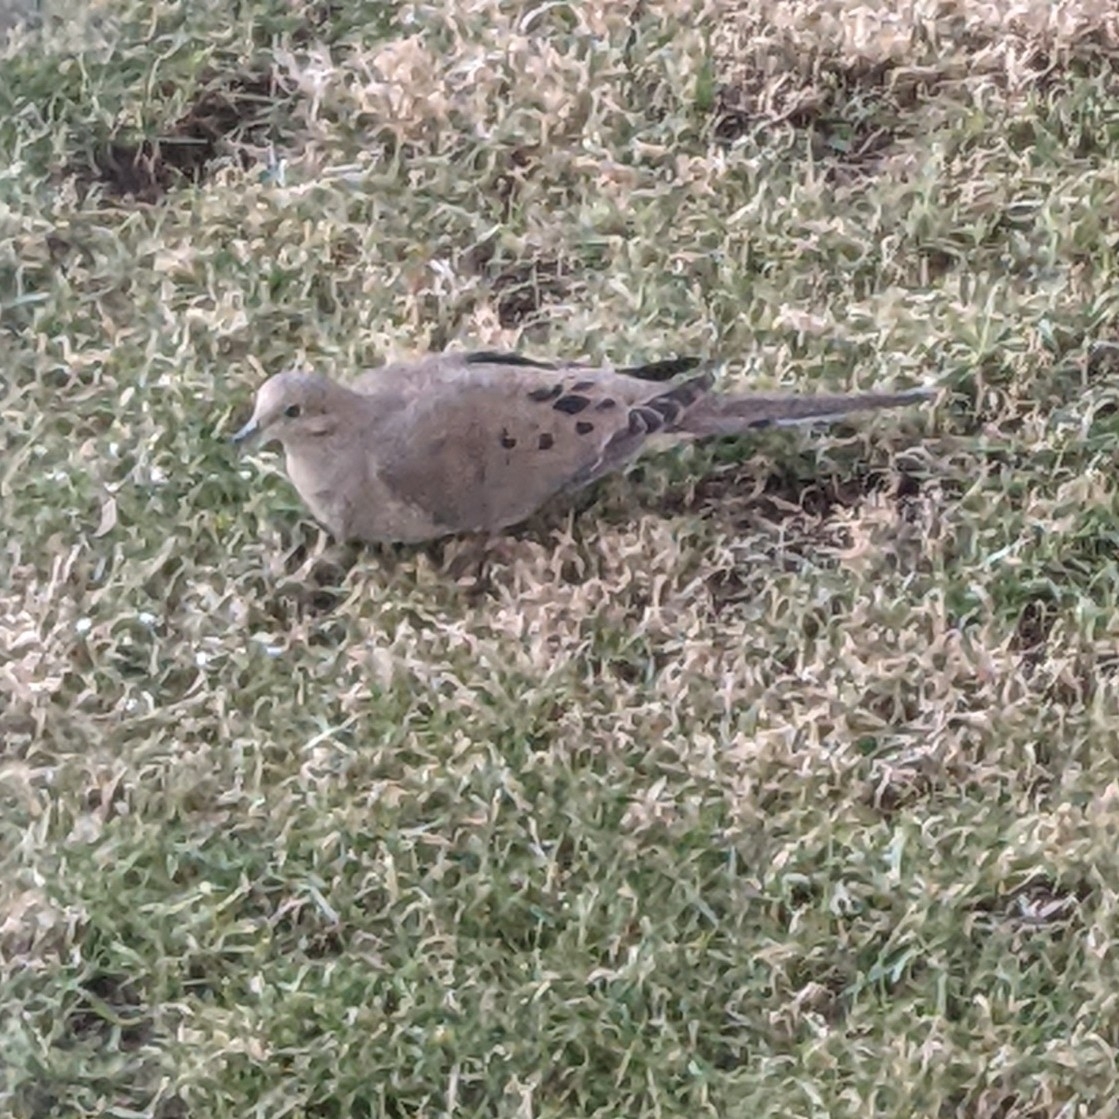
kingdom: Animalia
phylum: Chordata
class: Aves
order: Columbiformes
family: Columbidae
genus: Zenaida
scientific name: Zenaida macroura
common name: Mourning dove
